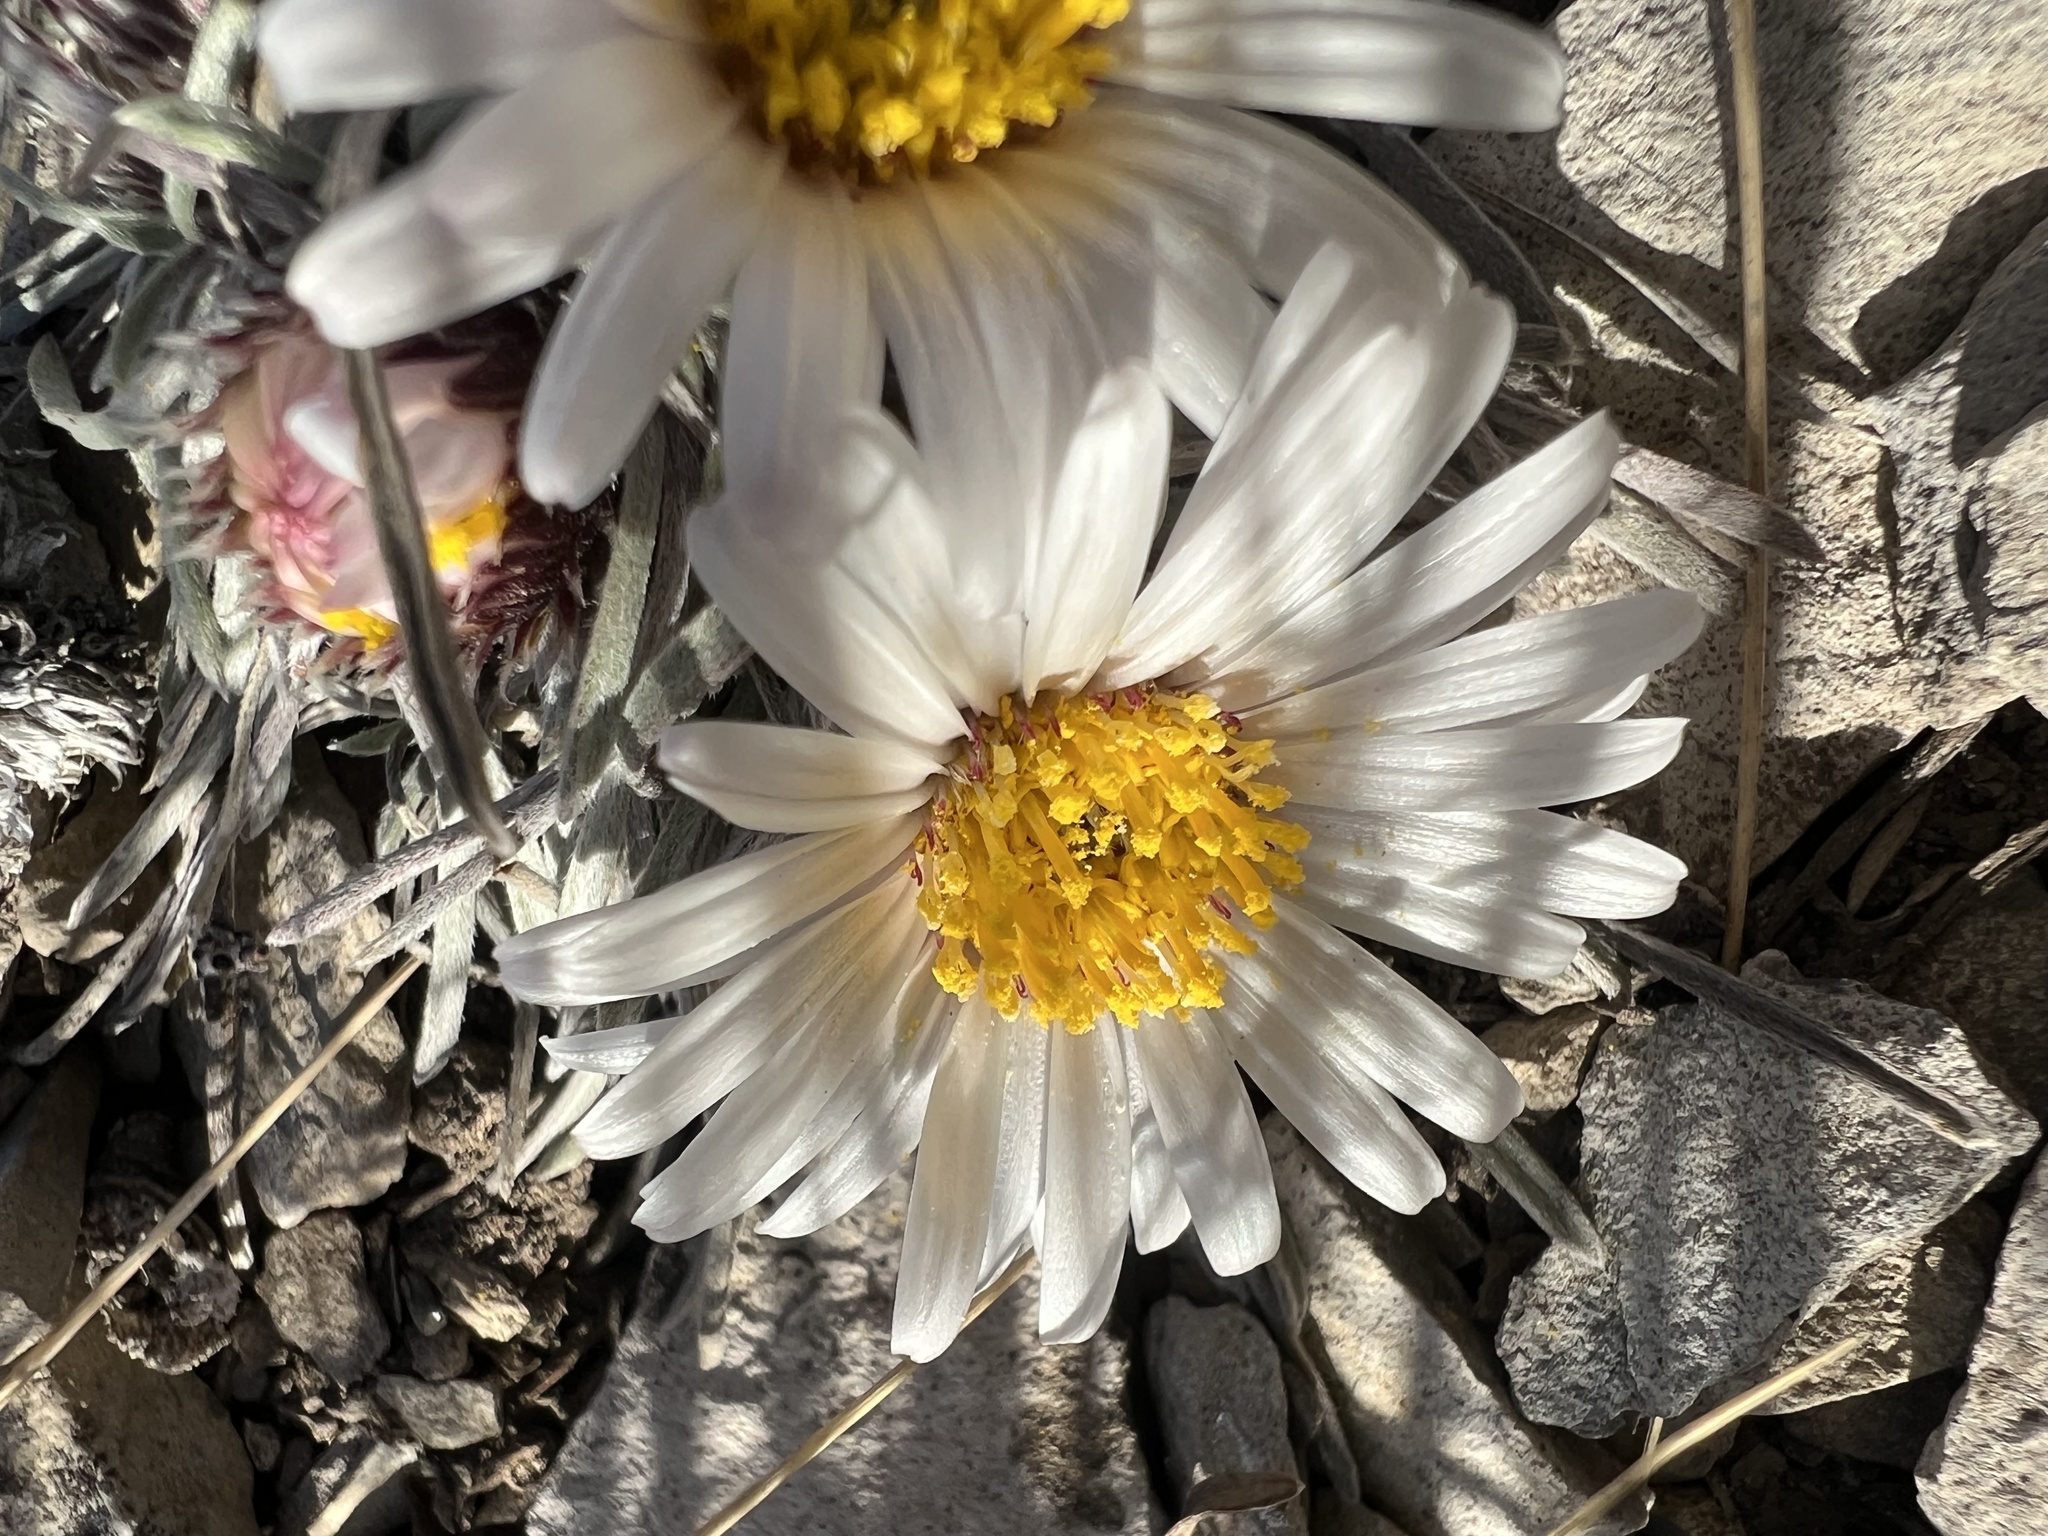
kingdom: Plantae
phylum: Tracheophyta
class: Magnoliopsida
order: Asterales
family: Asteraceae
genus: Townsendia
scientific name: Townsendia hookeri
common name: Hooker's townsend daisy
